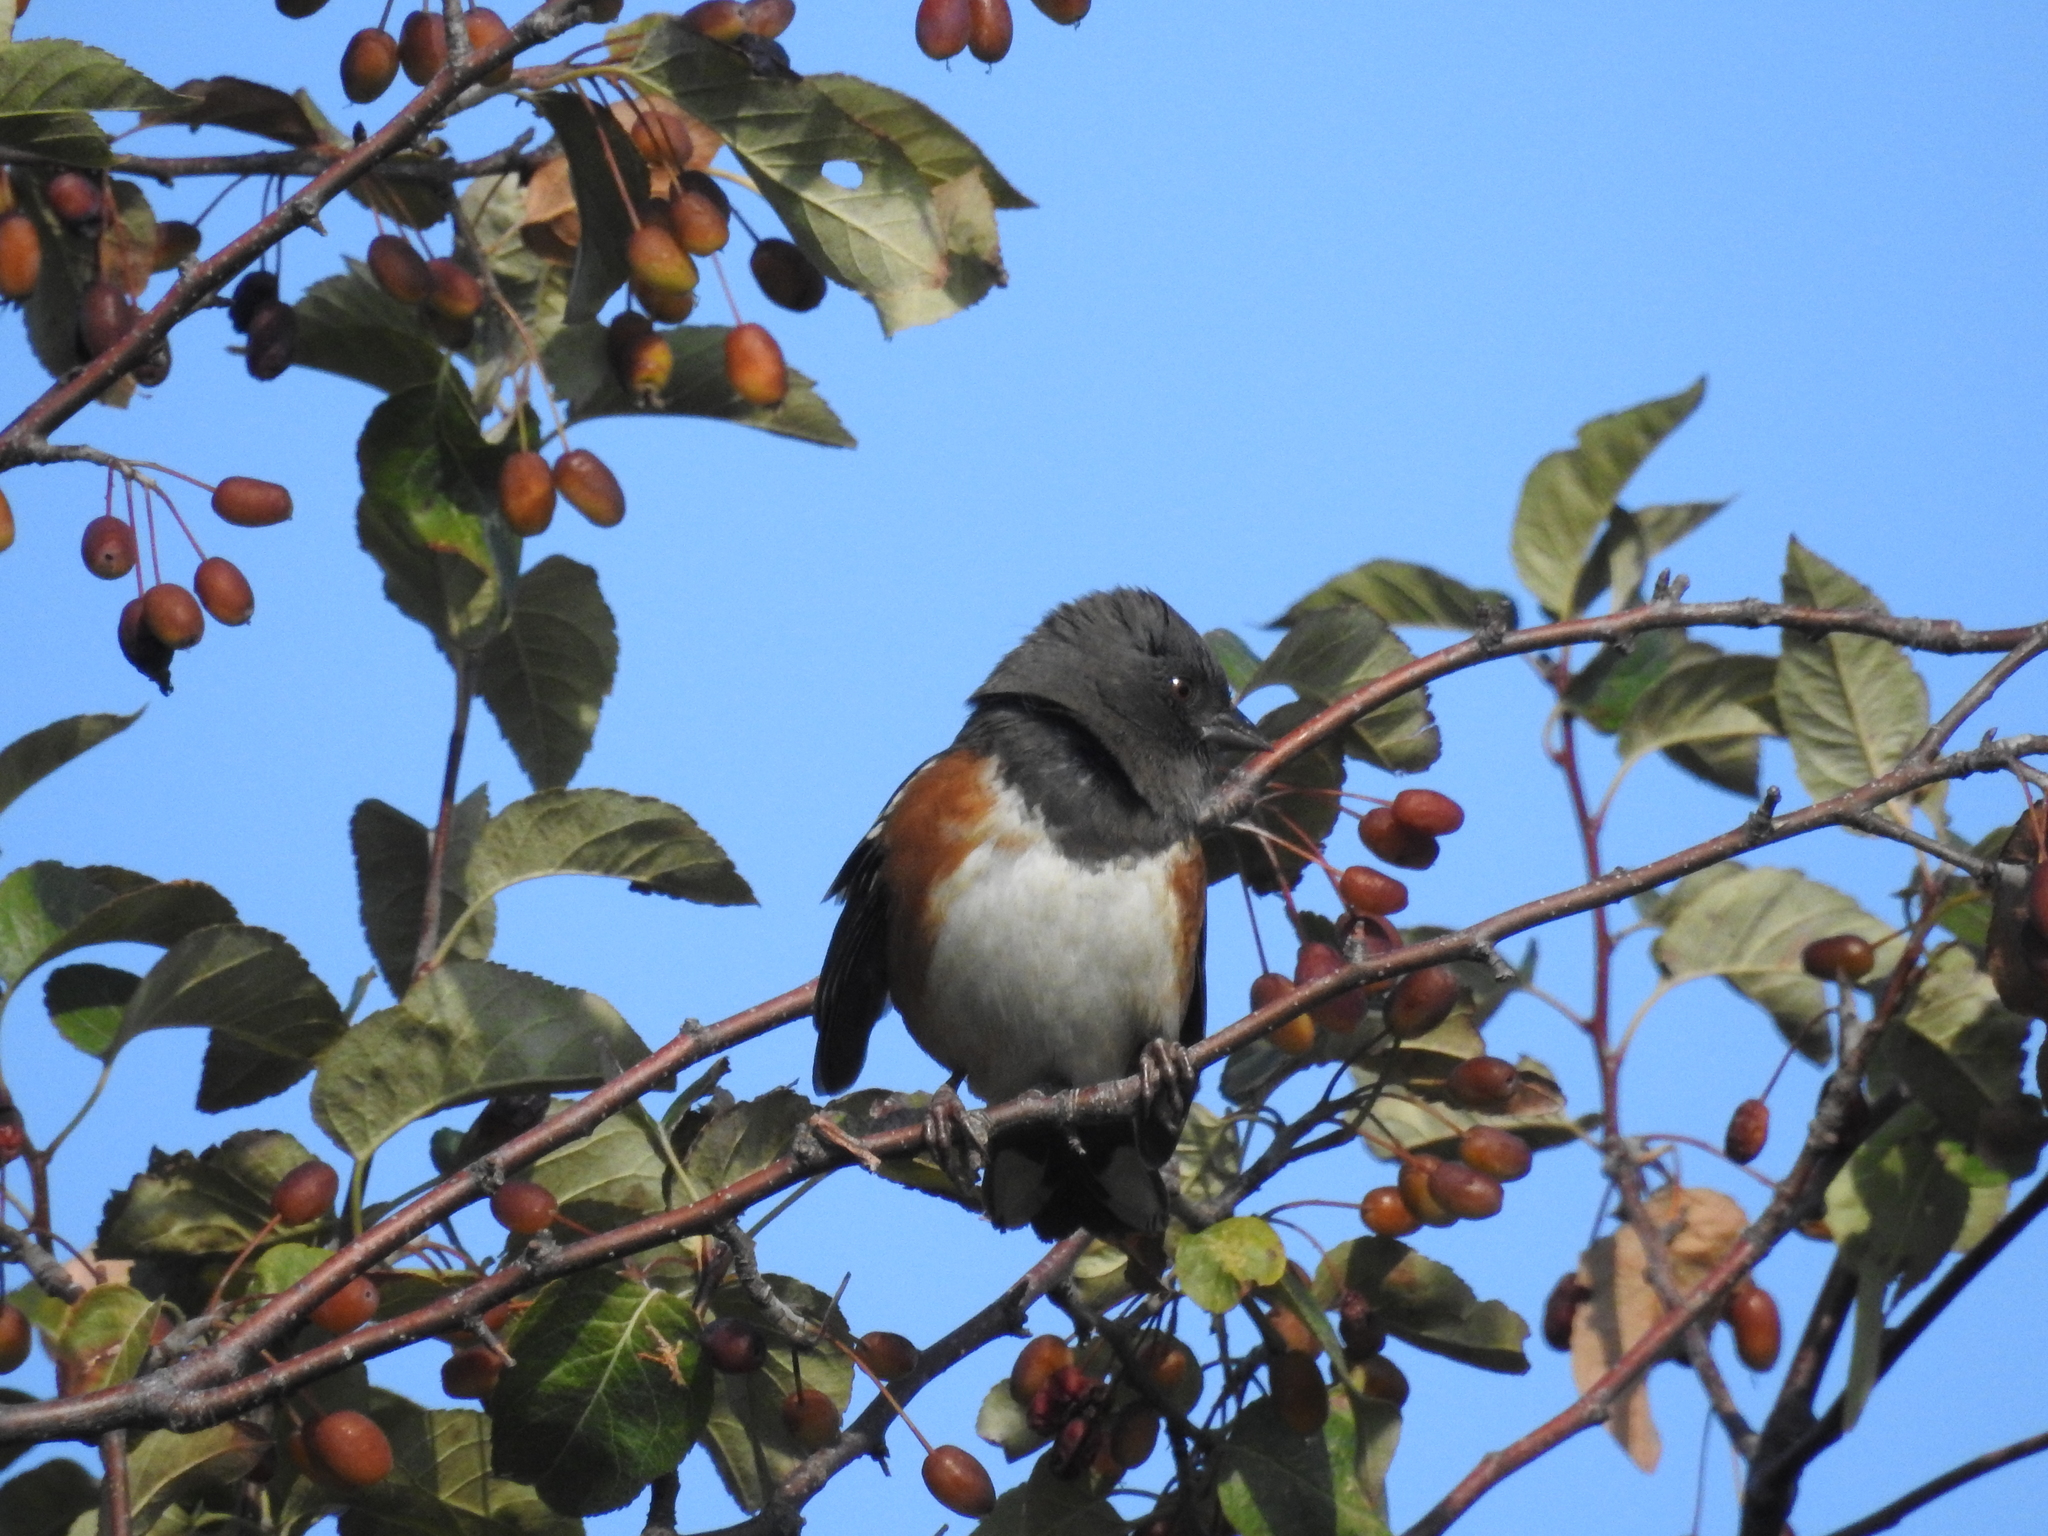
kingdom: Animalia
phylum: Chordata
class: Aves
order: Passeriformes
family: Passerellidae
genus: Pipilo
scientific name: Pipilo maculatus
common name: Spotted towhee
